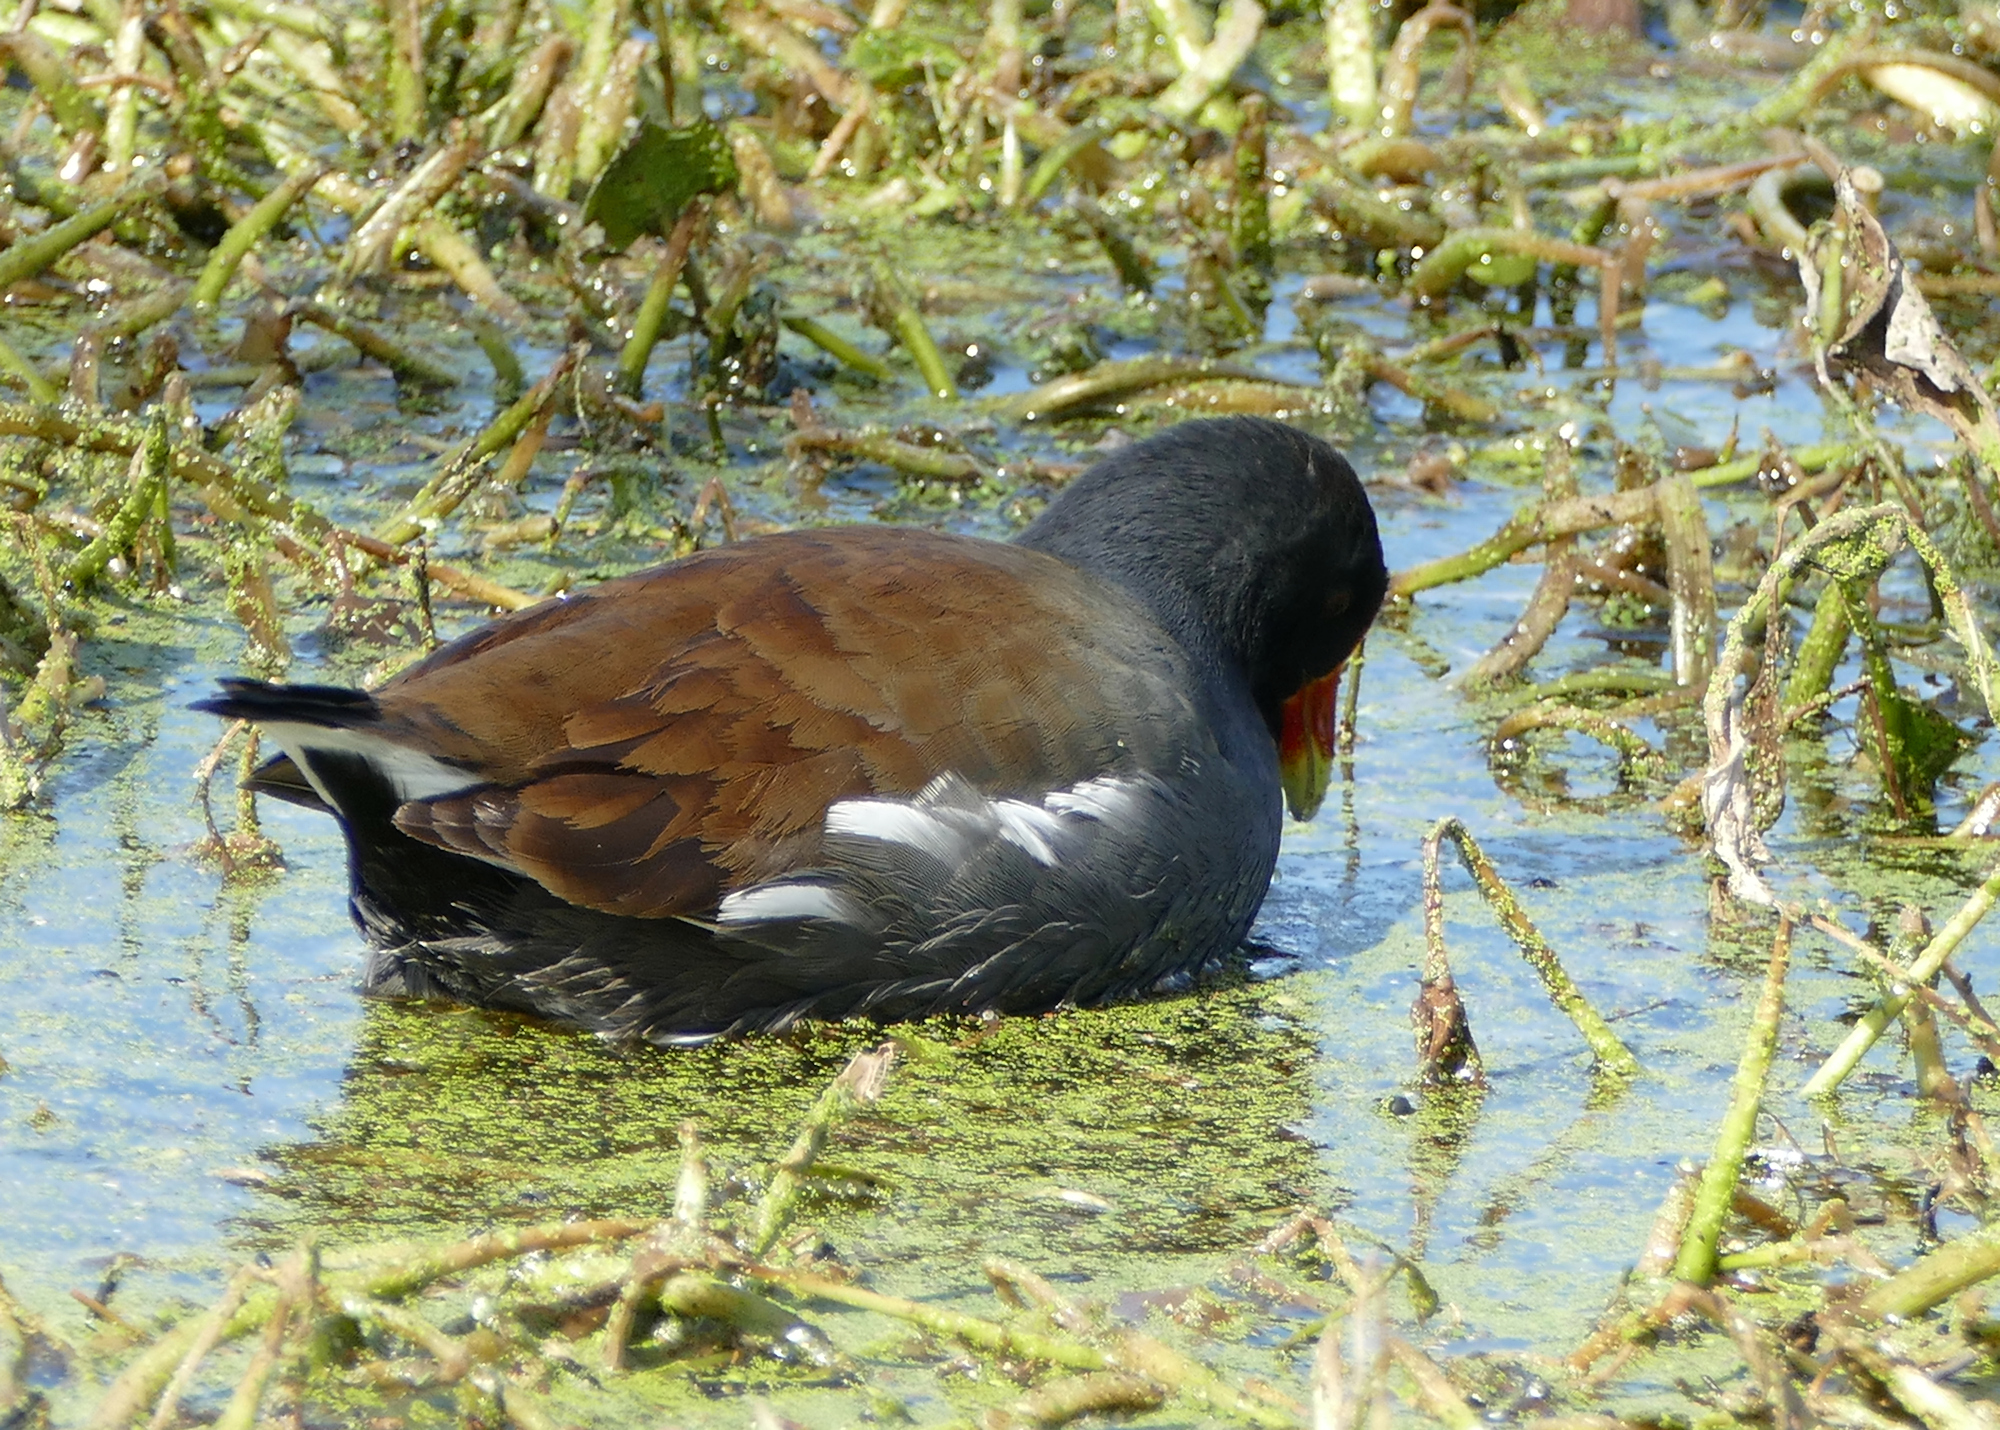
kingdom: Animalia
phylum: Chordata
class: Aves
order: Gruiformes
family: Rallidae
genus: Gallinula
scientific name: Gallinula chloropus
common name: Common moorhen
